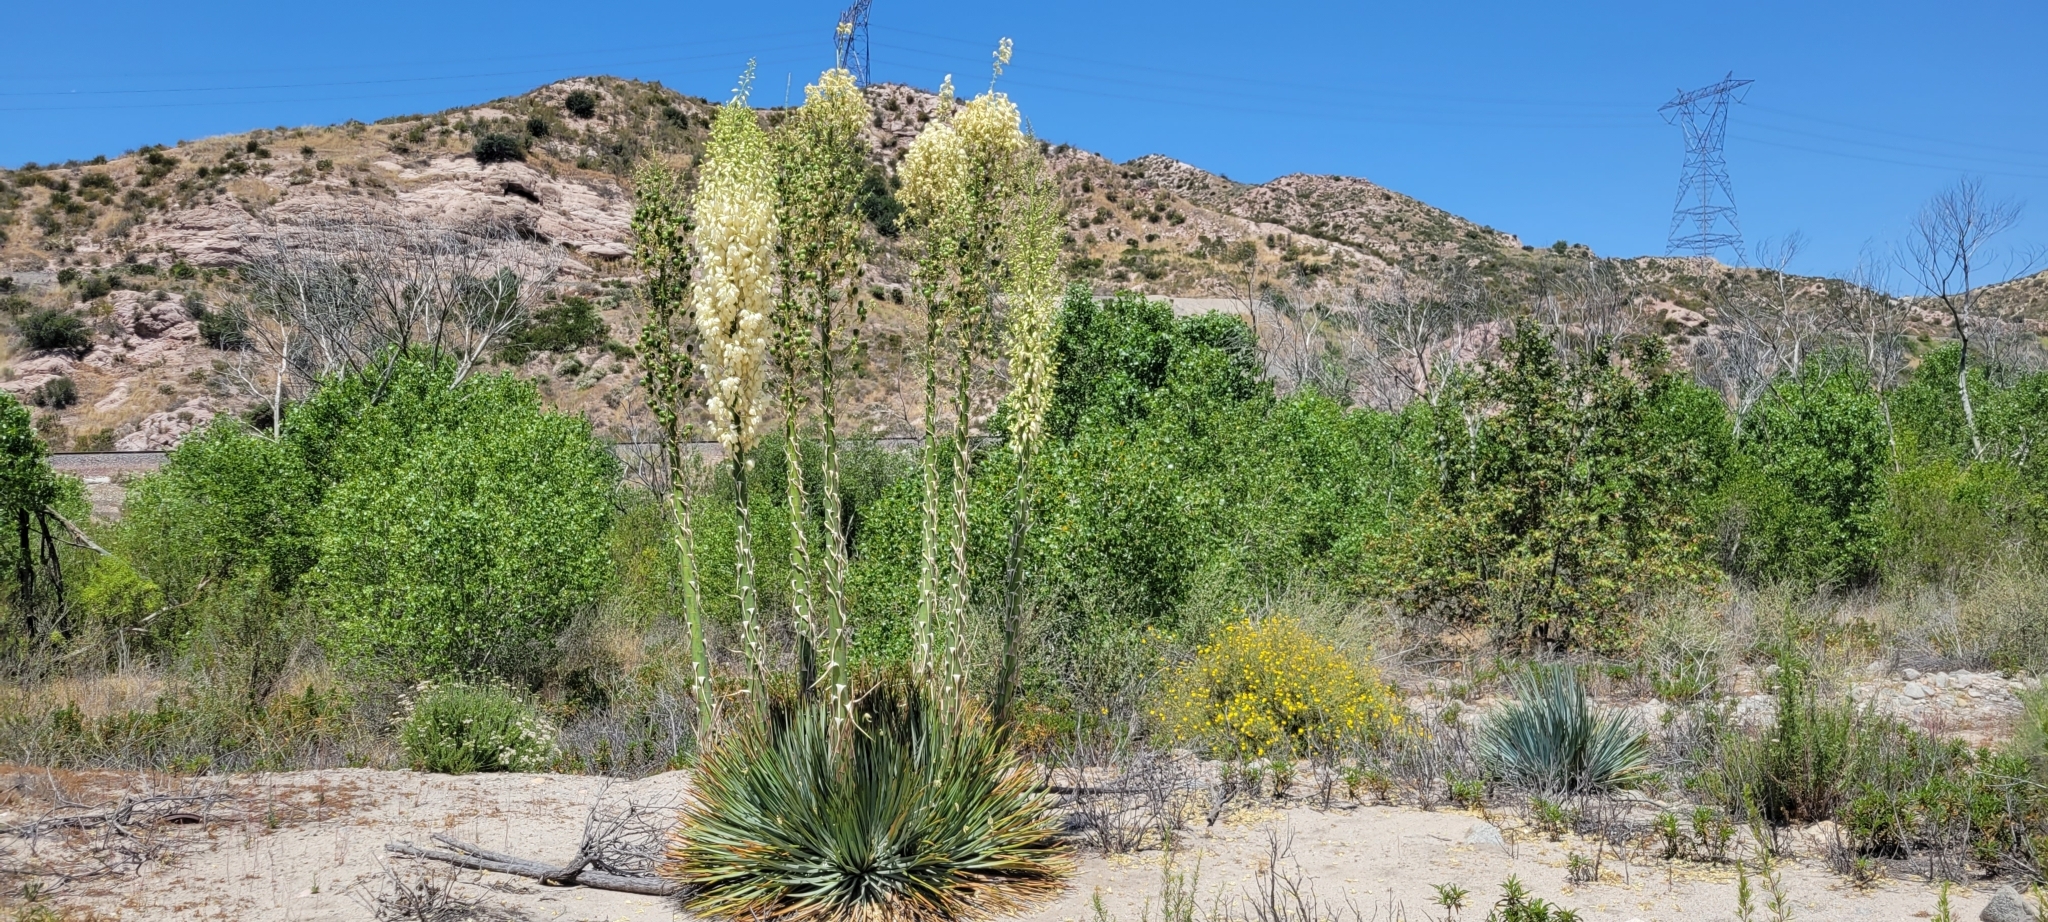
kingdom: Plantae
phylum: Tracheophyta
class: Liliopsida
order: Asparagales
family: Asparagaceae
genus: Hesperoyucca
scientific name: Hesperoyucca whipplei
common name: Our lord's-candle
